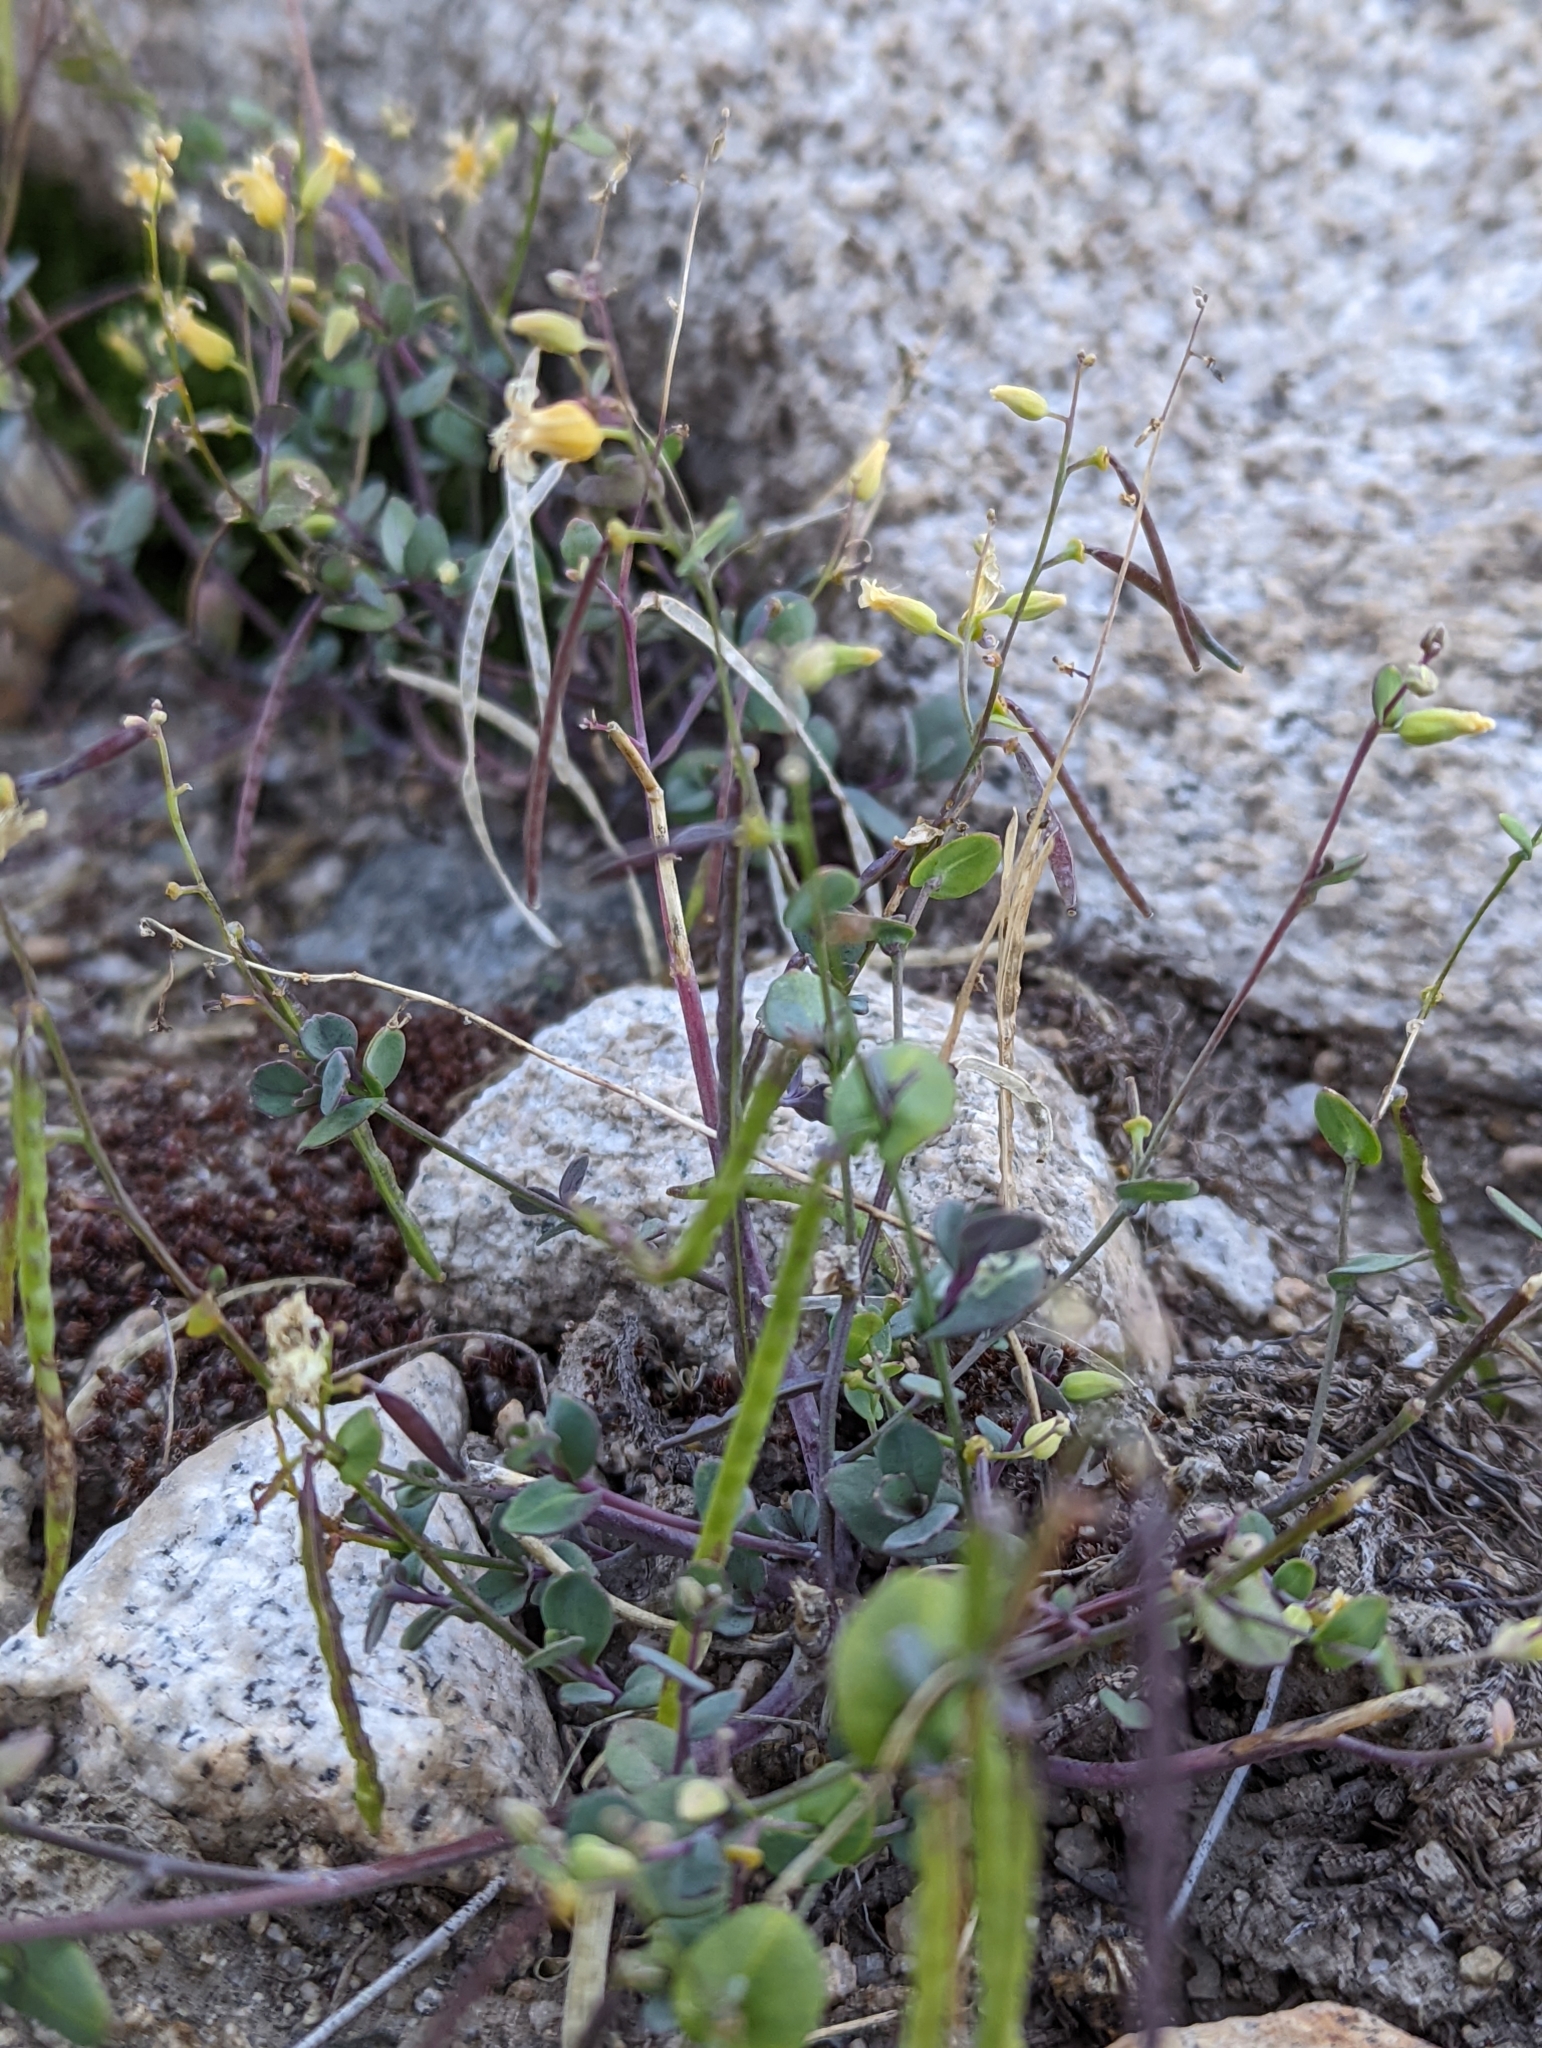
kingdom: Plantae
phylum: Tracheophyta
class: Magnoliopsida
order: Brassicales
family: Brassicaceae
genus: Streptanthus
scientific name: Streptanthus tortuosus
